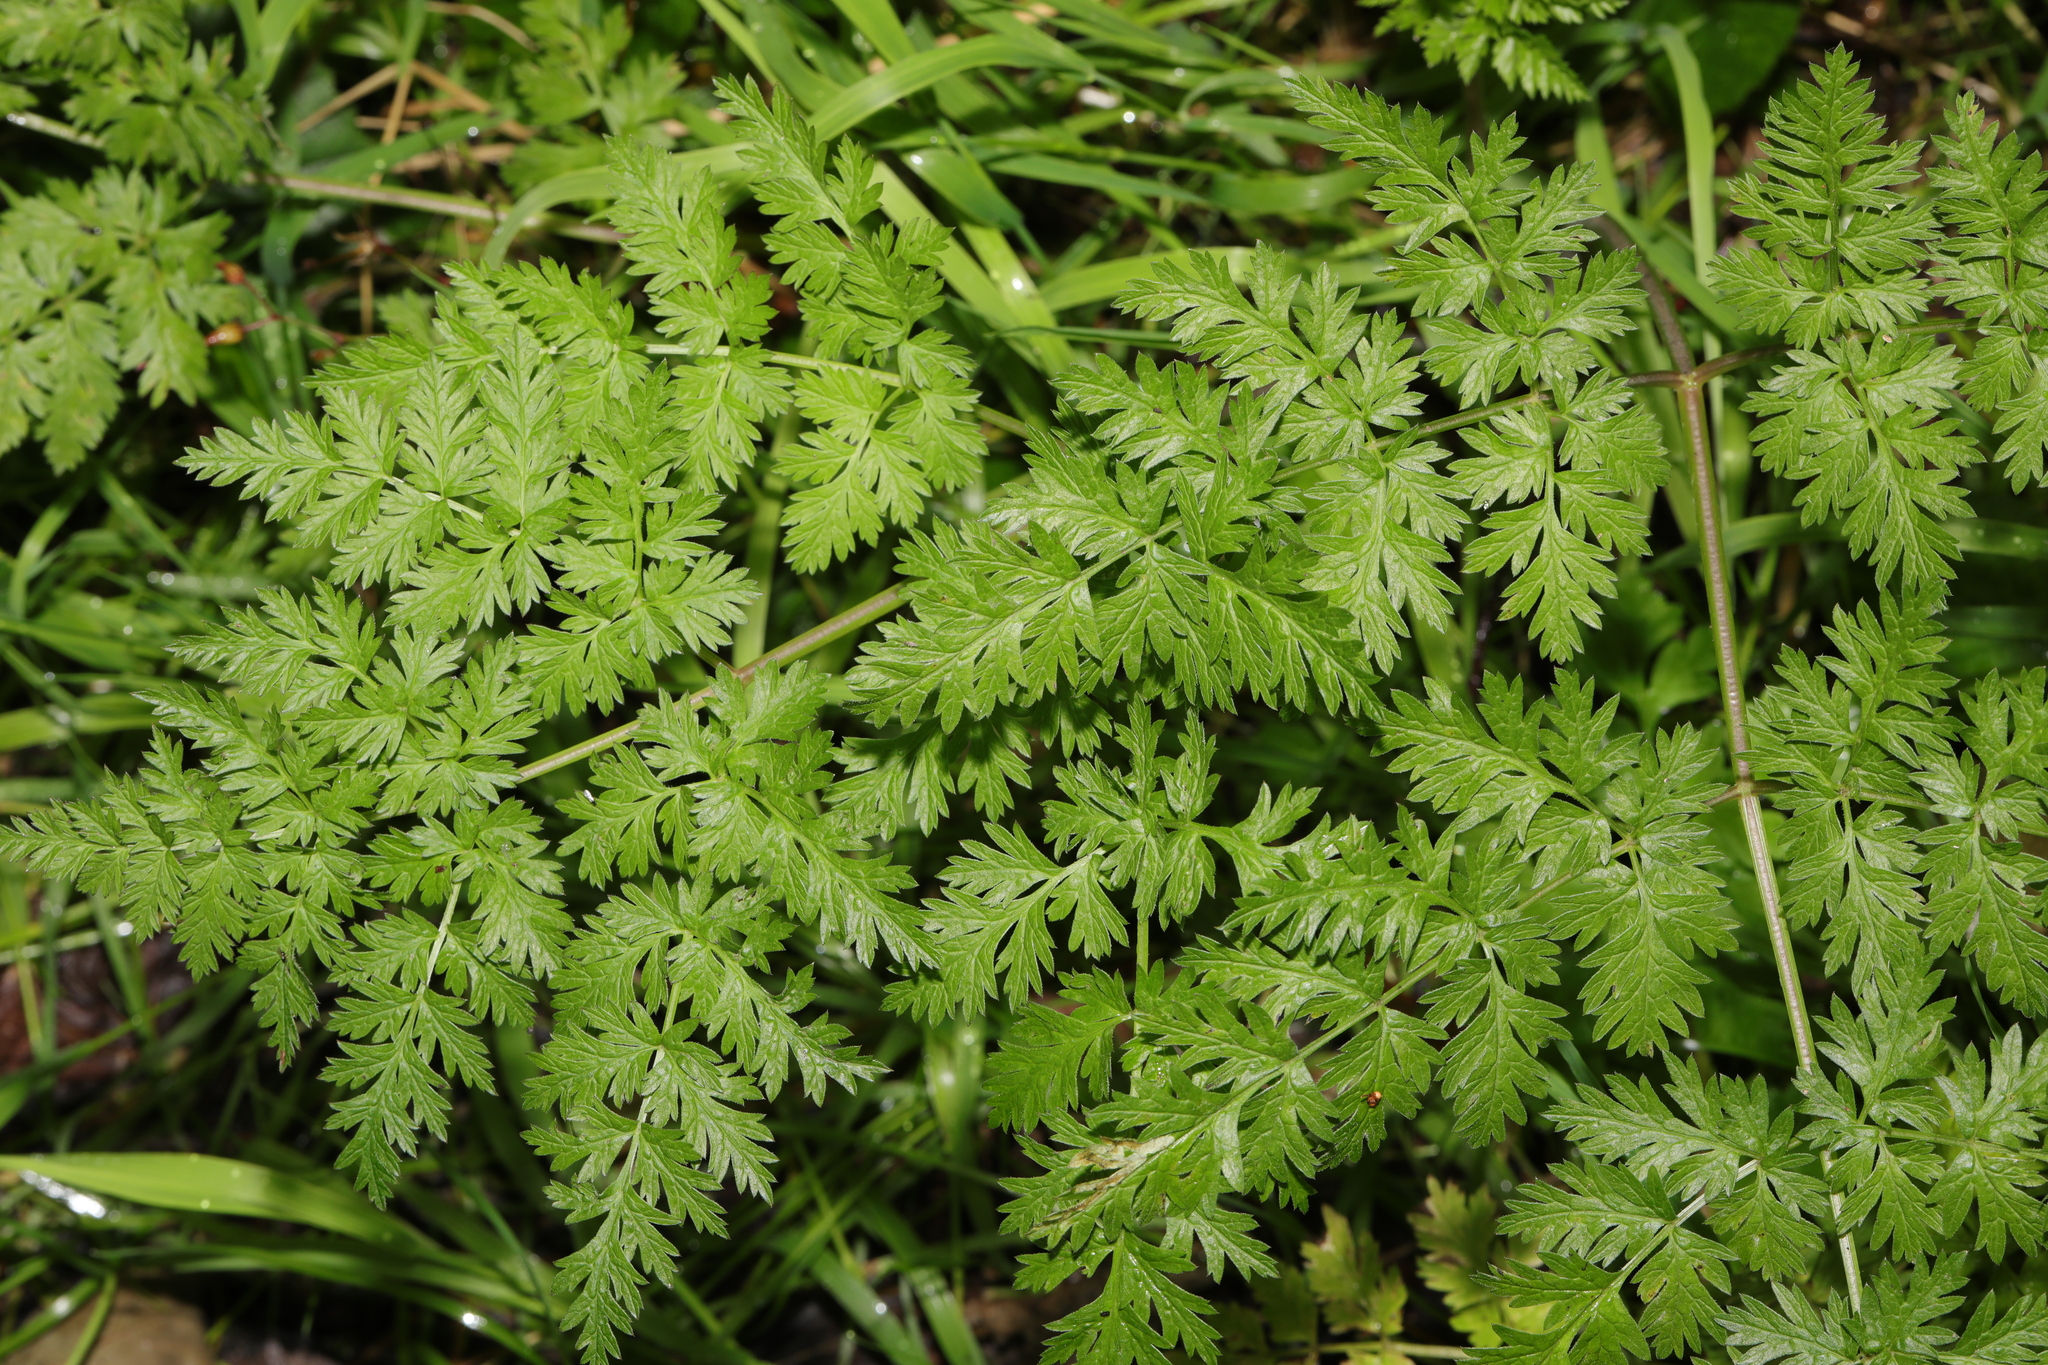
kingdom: Plantae
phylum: Tracheophyta
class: Magnoliopsida
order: Apiales
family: Apiaceae
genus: Anthriscus
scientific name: Anthriscus sylvestris
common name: Cow parsley
